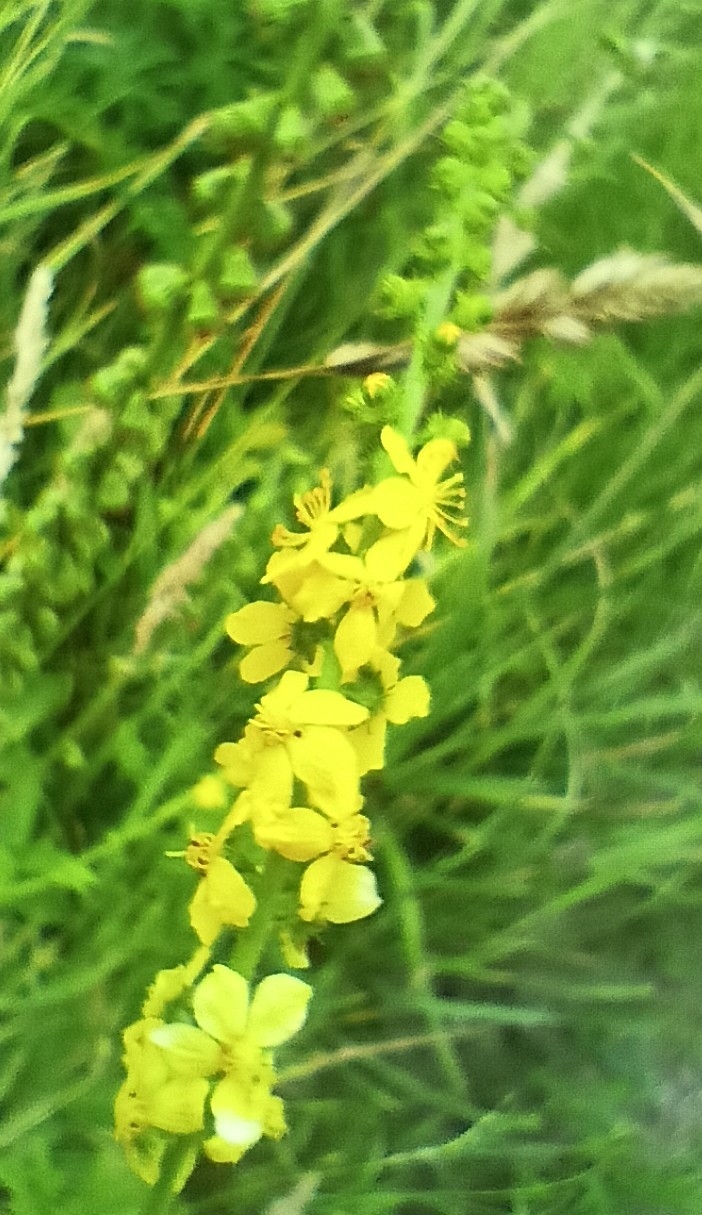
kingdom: Plantae
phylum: Tracheophyta
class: Magnoliopsida
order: Rosales
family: Rosaceae
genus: Agrimonia
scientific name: Agrimonia eupatoria
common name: Agrimony
